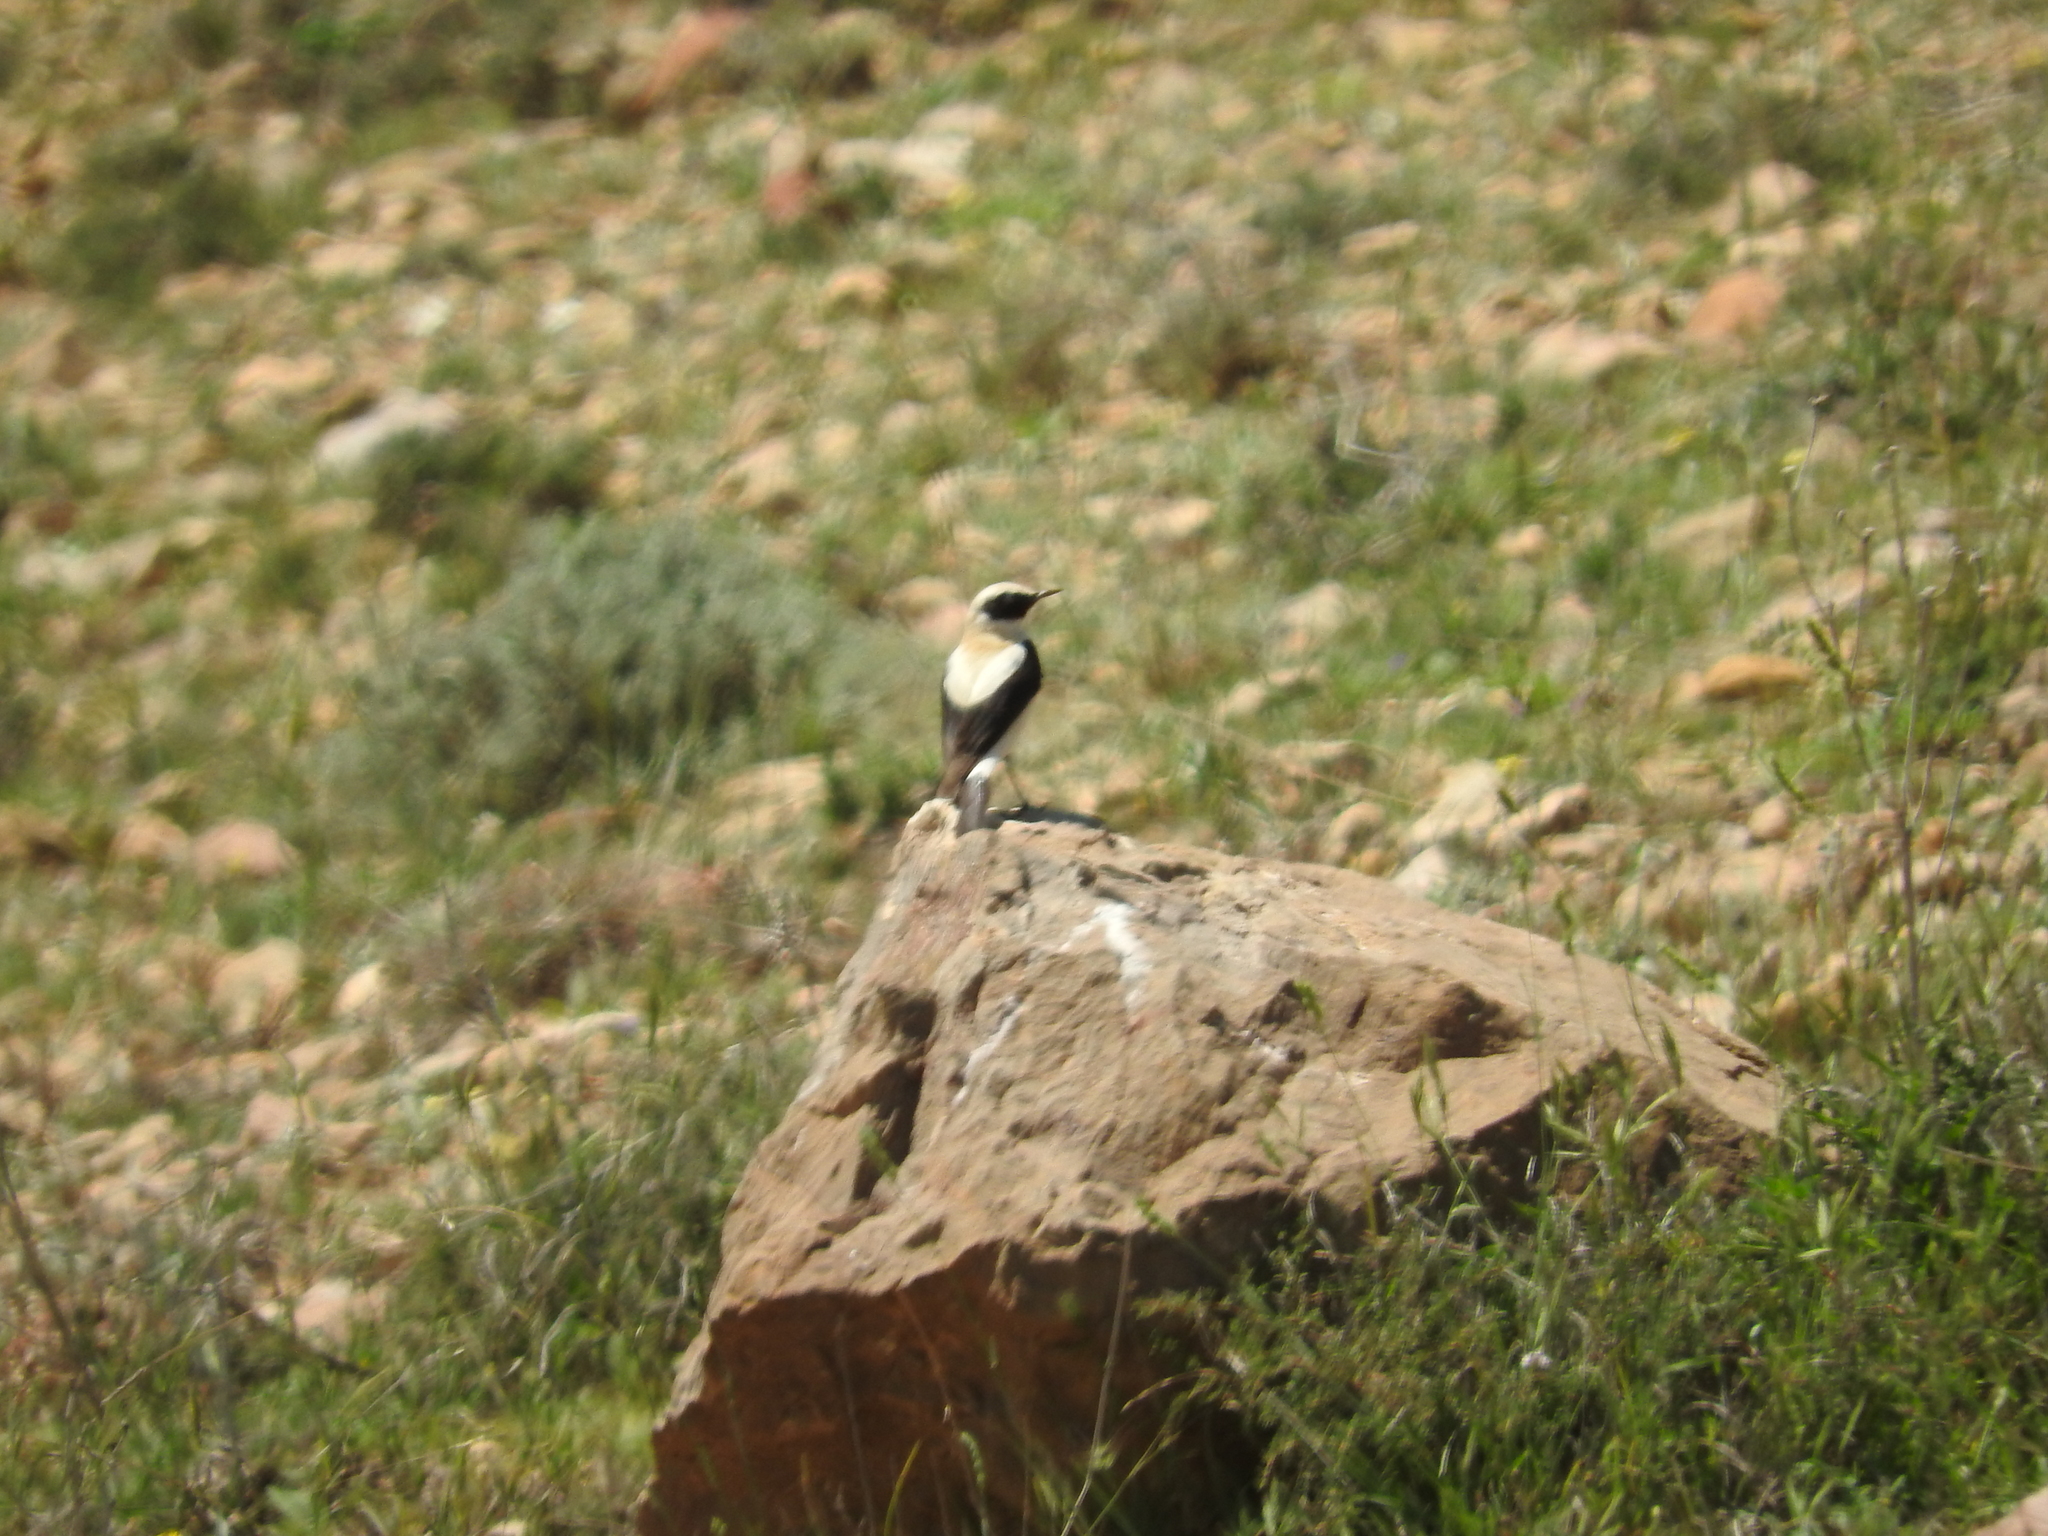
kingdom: Animalia
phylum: Chordata
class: Aves
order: Passeriformes
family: Muscicapidae
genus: Oenanthe
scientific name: Oenanthe hispanica
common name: Black-eared wheatear
